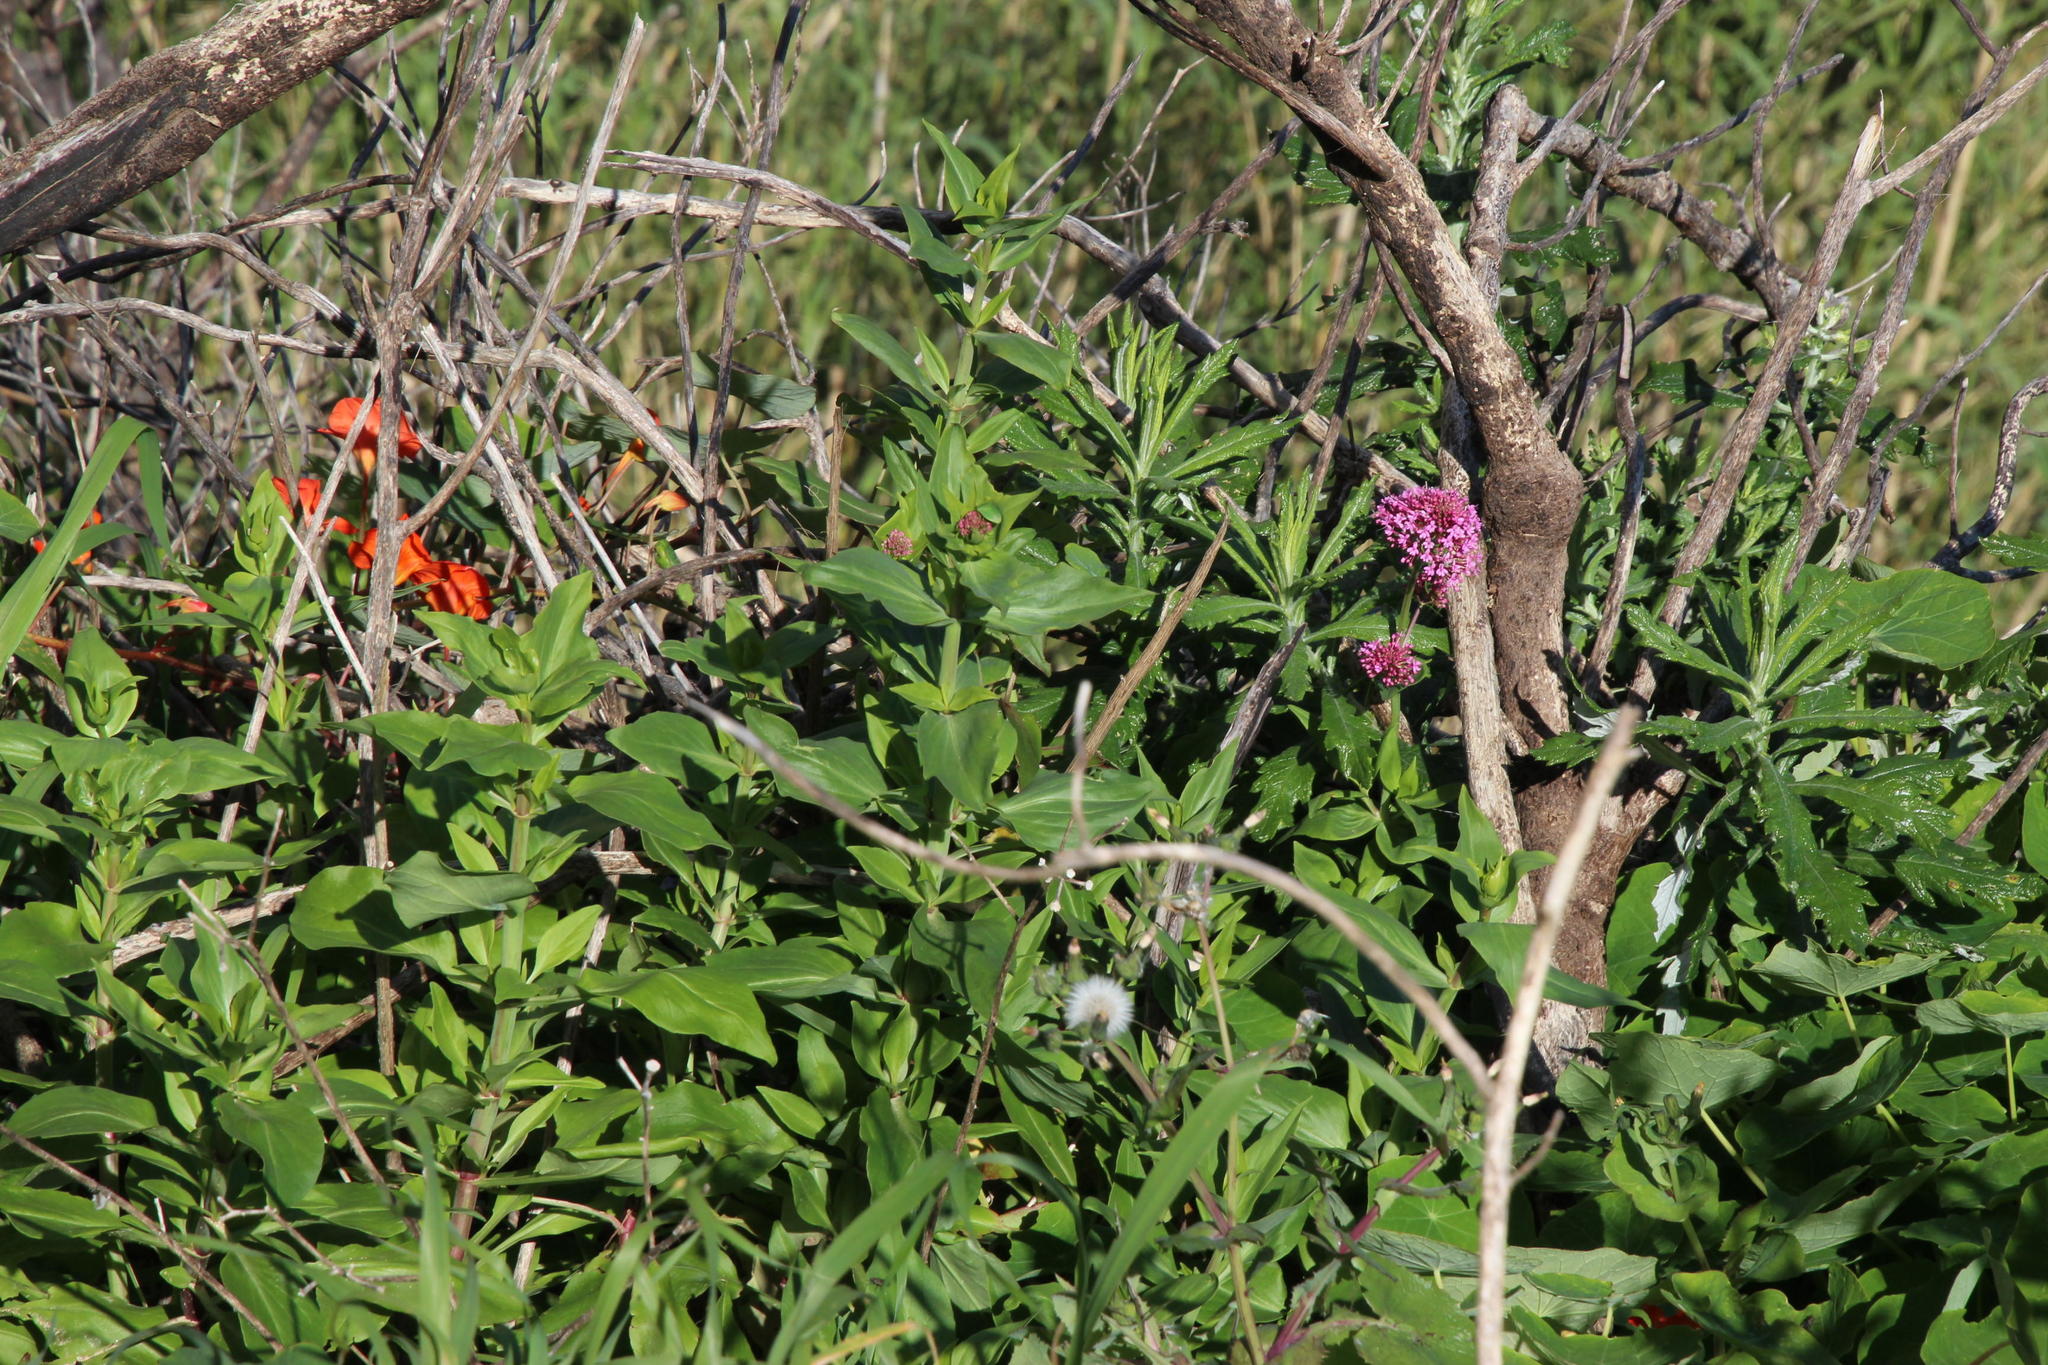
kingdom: Plantae
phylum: Tracheophyta
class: Magnoliopsida
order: Dipsacales
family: Caprifoliaceae
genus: Centranthus
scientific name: Centranthus ruber
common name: Red valerian
